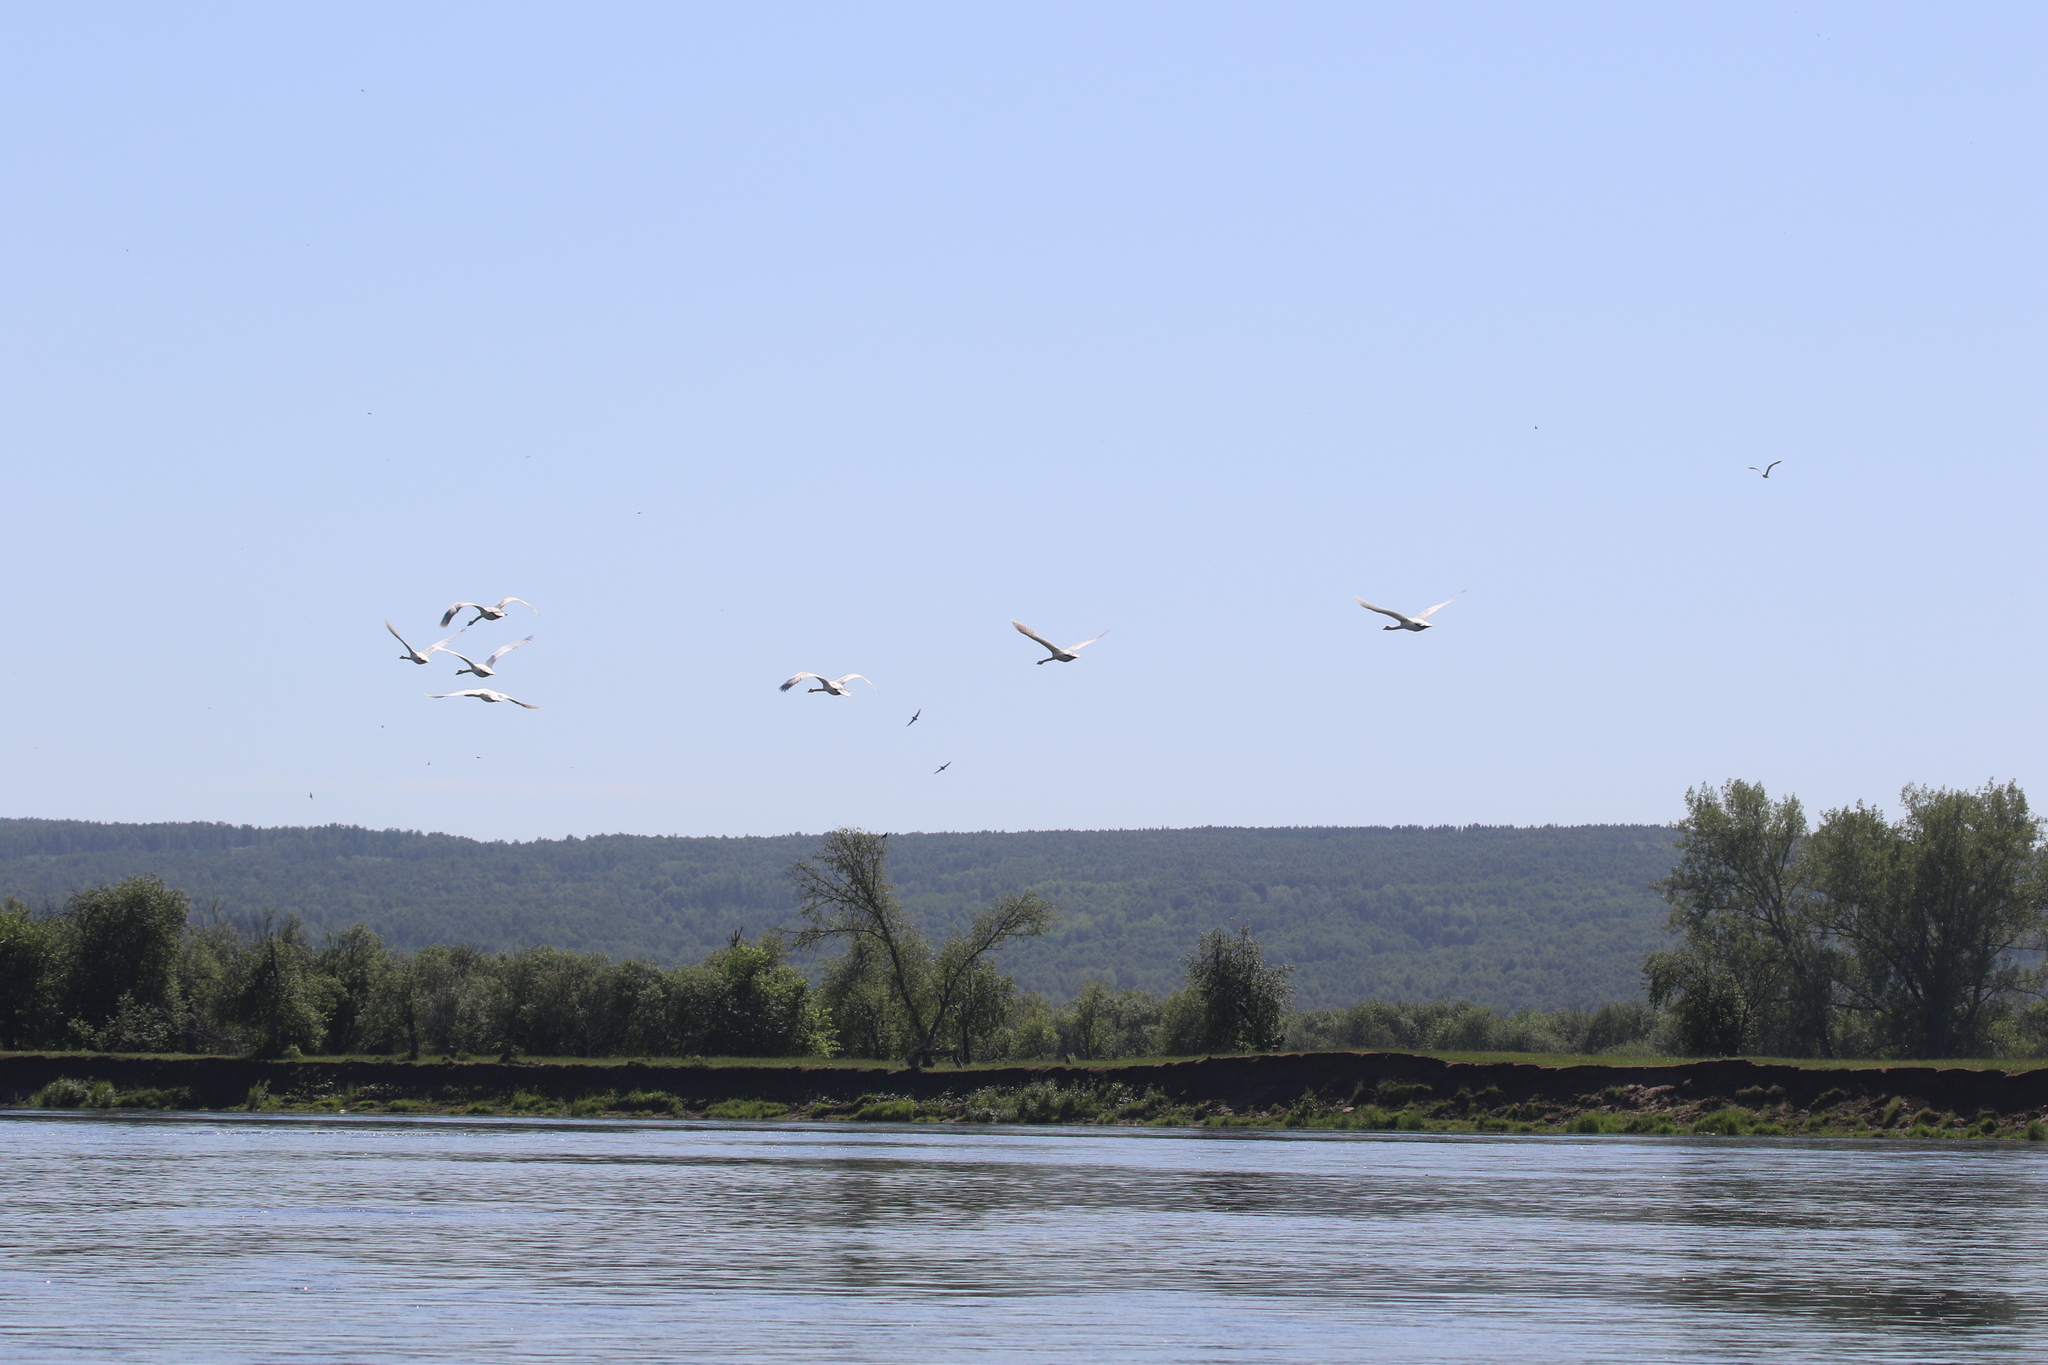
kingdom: Animalia
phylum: Chordata
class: Aves
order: Anseriformes
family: Anatidae
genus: Cygnus
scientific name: Cygnus olor
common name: Mute swan
